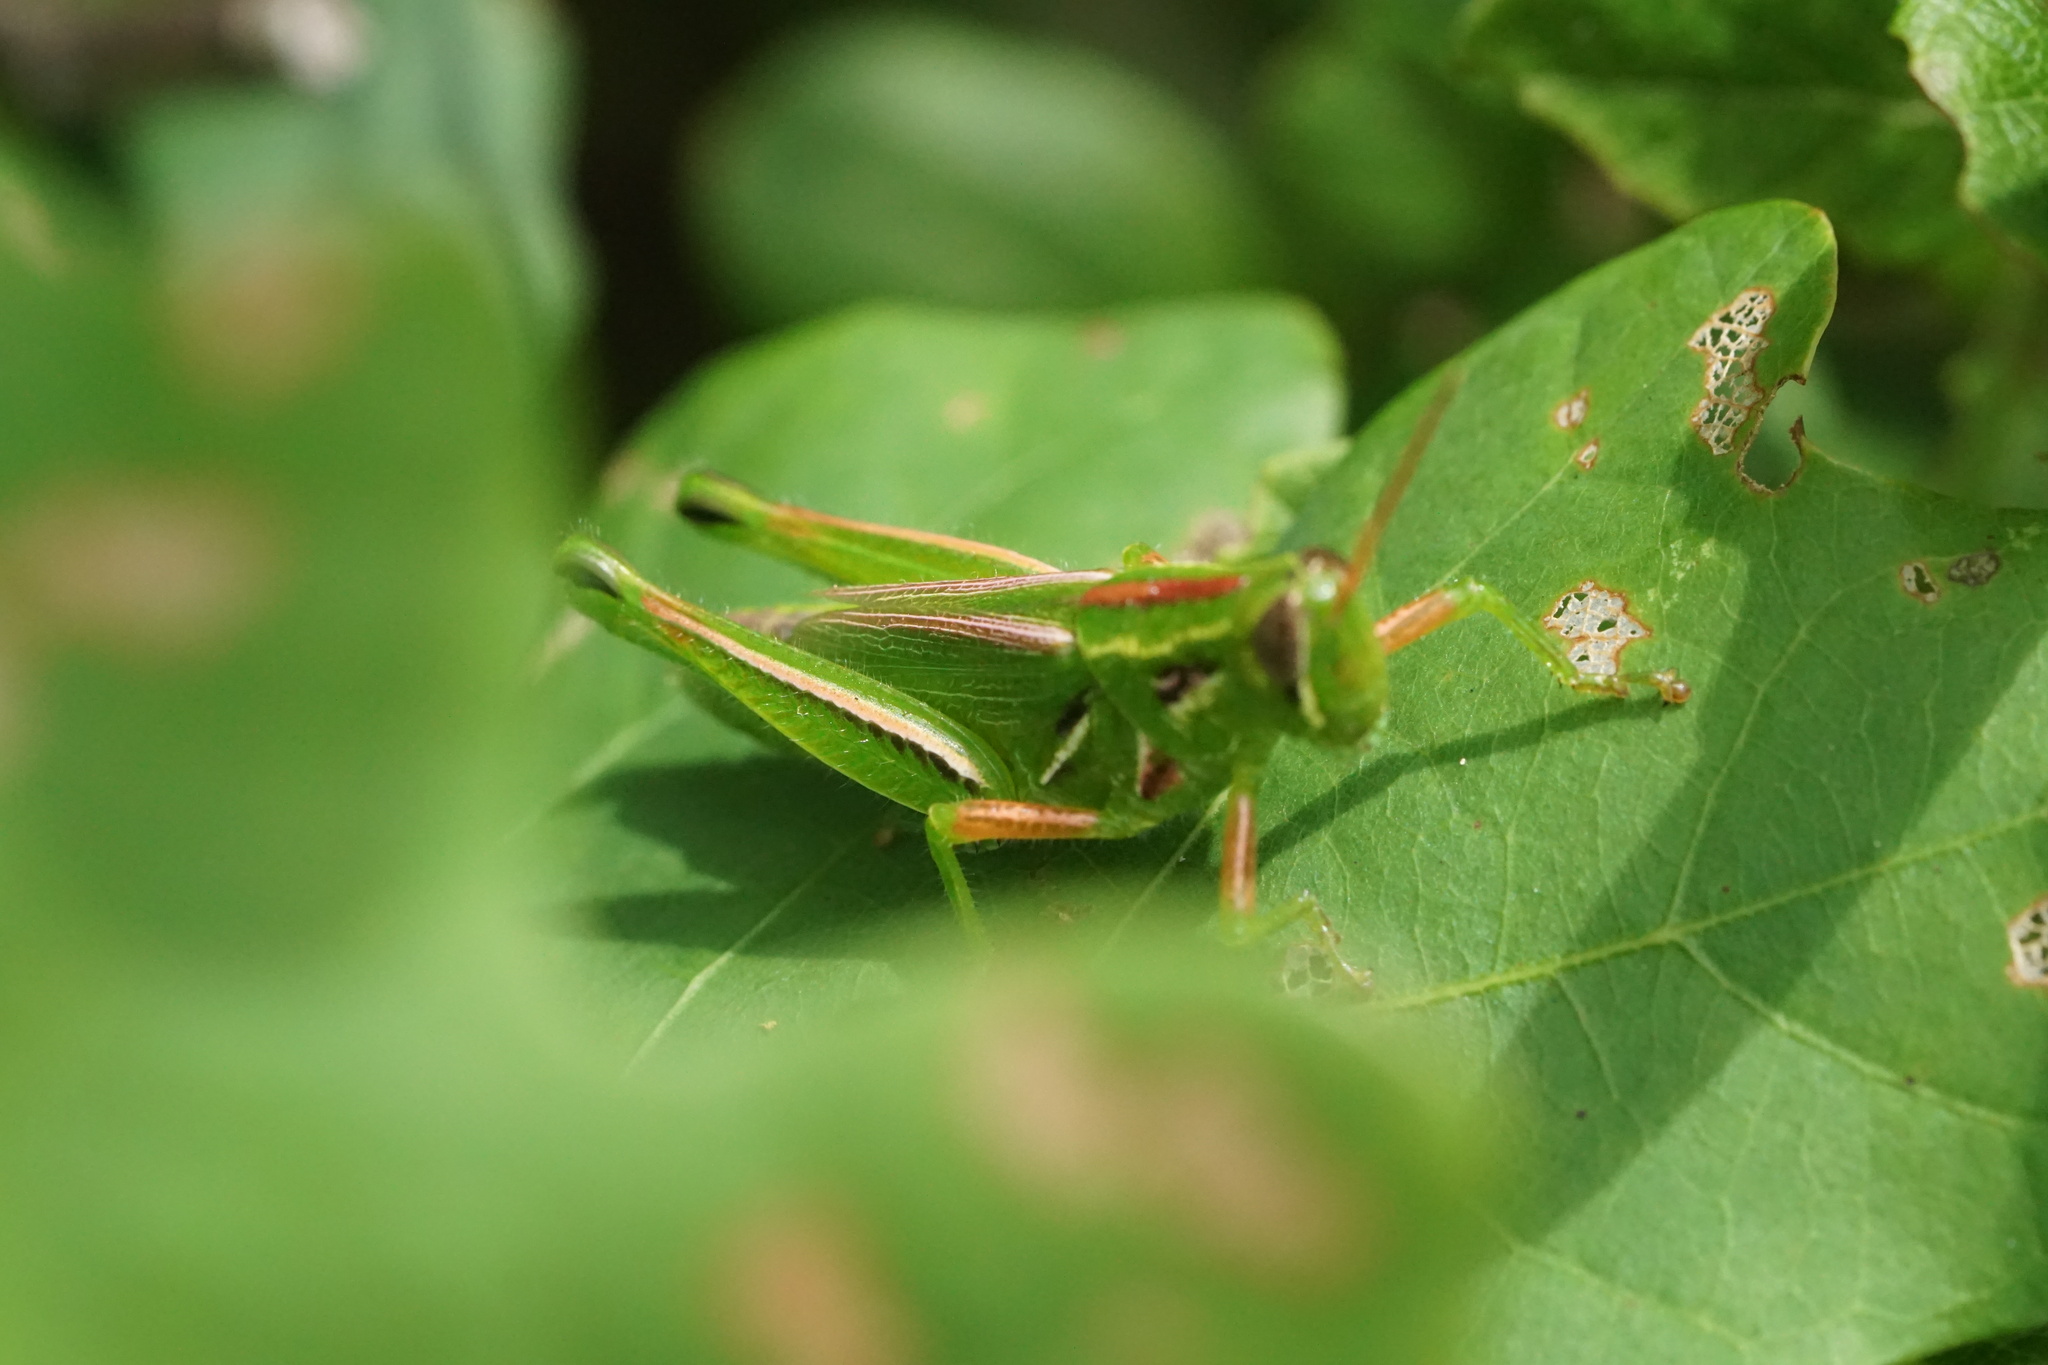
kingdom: Animalia
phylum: Arthropoda
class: Insecta
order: Orthoptera
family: Acrididae
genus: Hesperotettix
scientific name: Hesperotettix viridis
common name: Meadow purple-striped grasshopper
